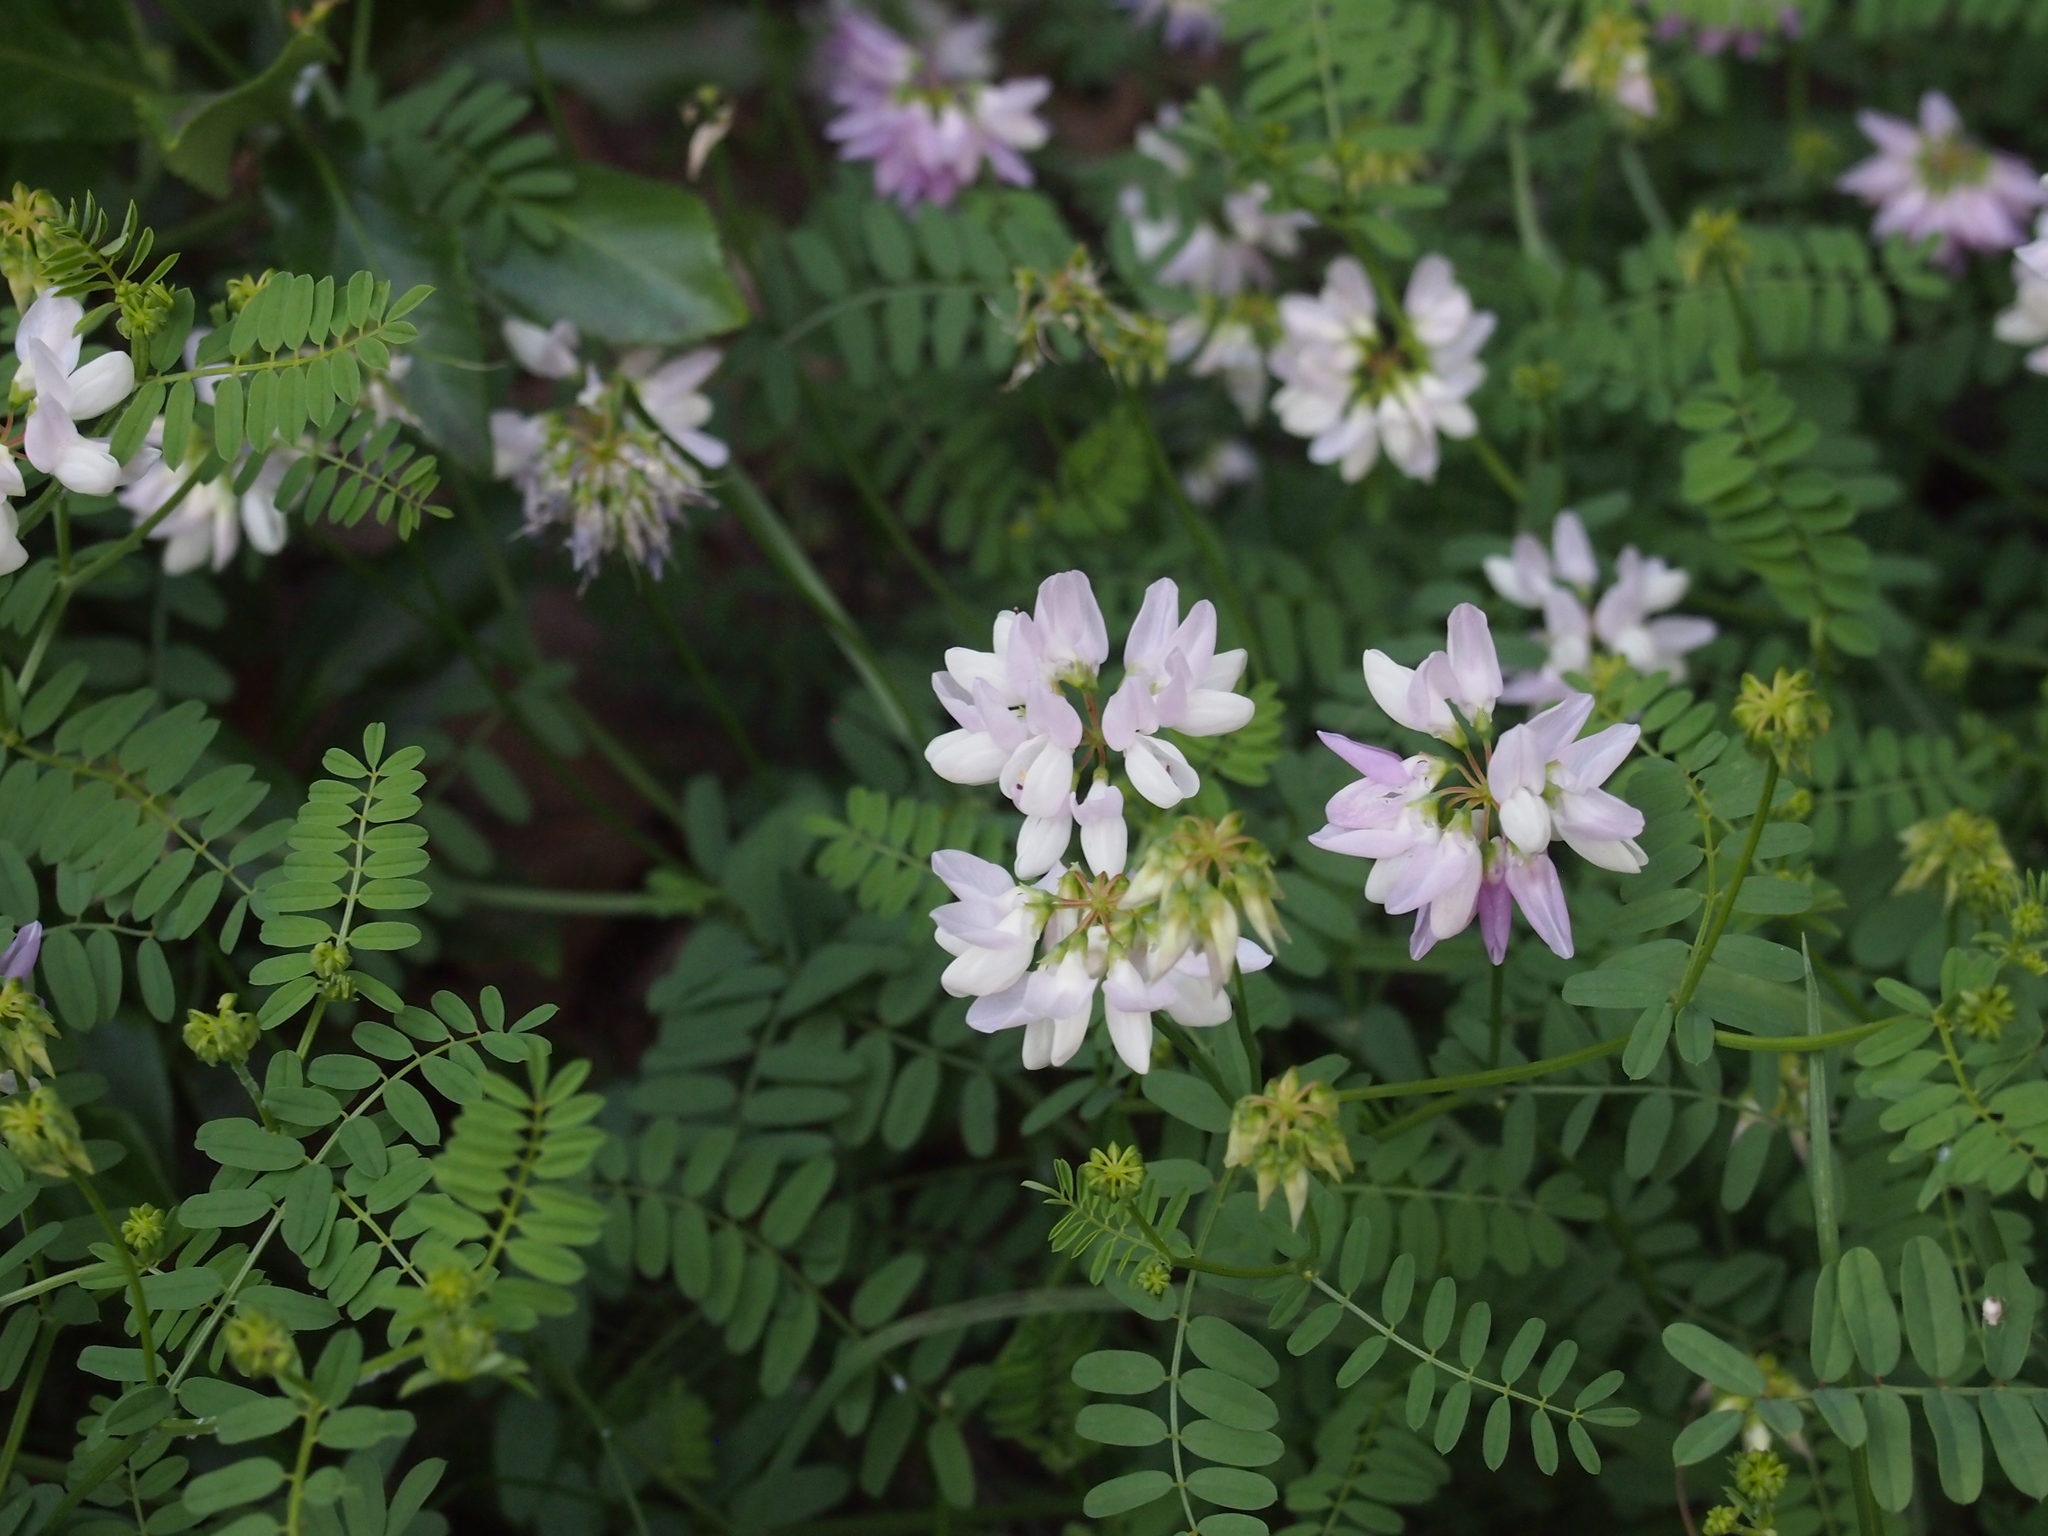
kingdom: Plantae
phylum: Tracheophyta
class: Magnoliopsida
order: Fabales
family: Fabaceae
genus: Coronilla
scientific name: Coronilla varia
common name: Crownvetch
